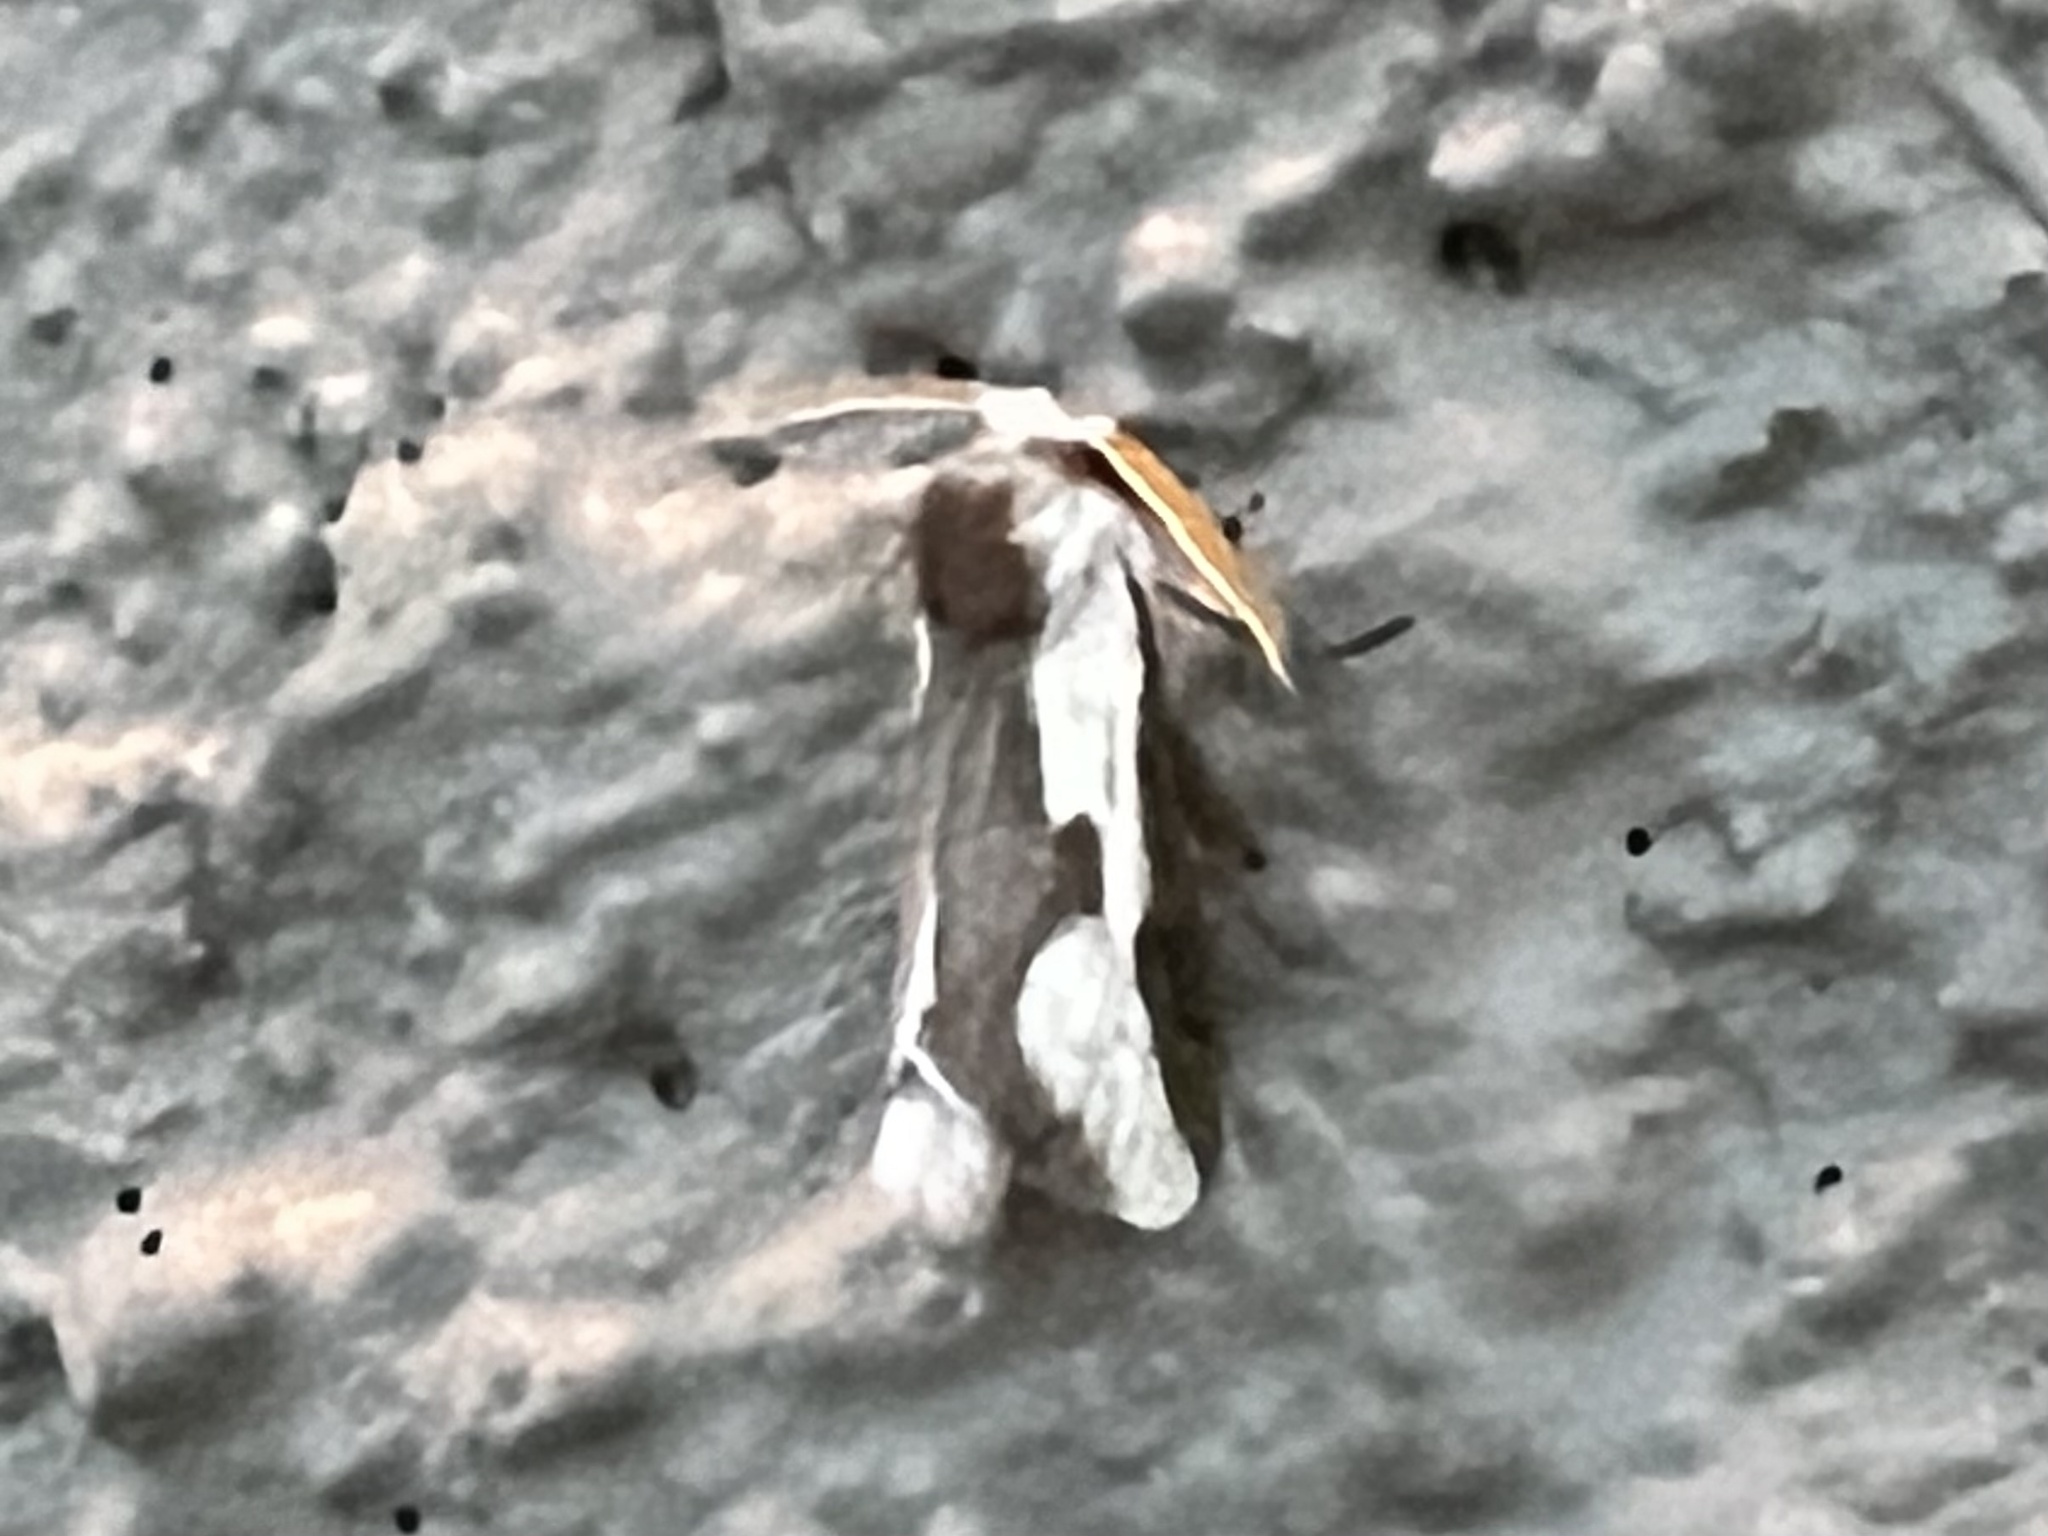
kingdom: Animalia
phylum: Arthropoda
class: Insecta
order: Lepidoptera
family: Megalopygidae
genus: Norape
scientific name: Norape tener
